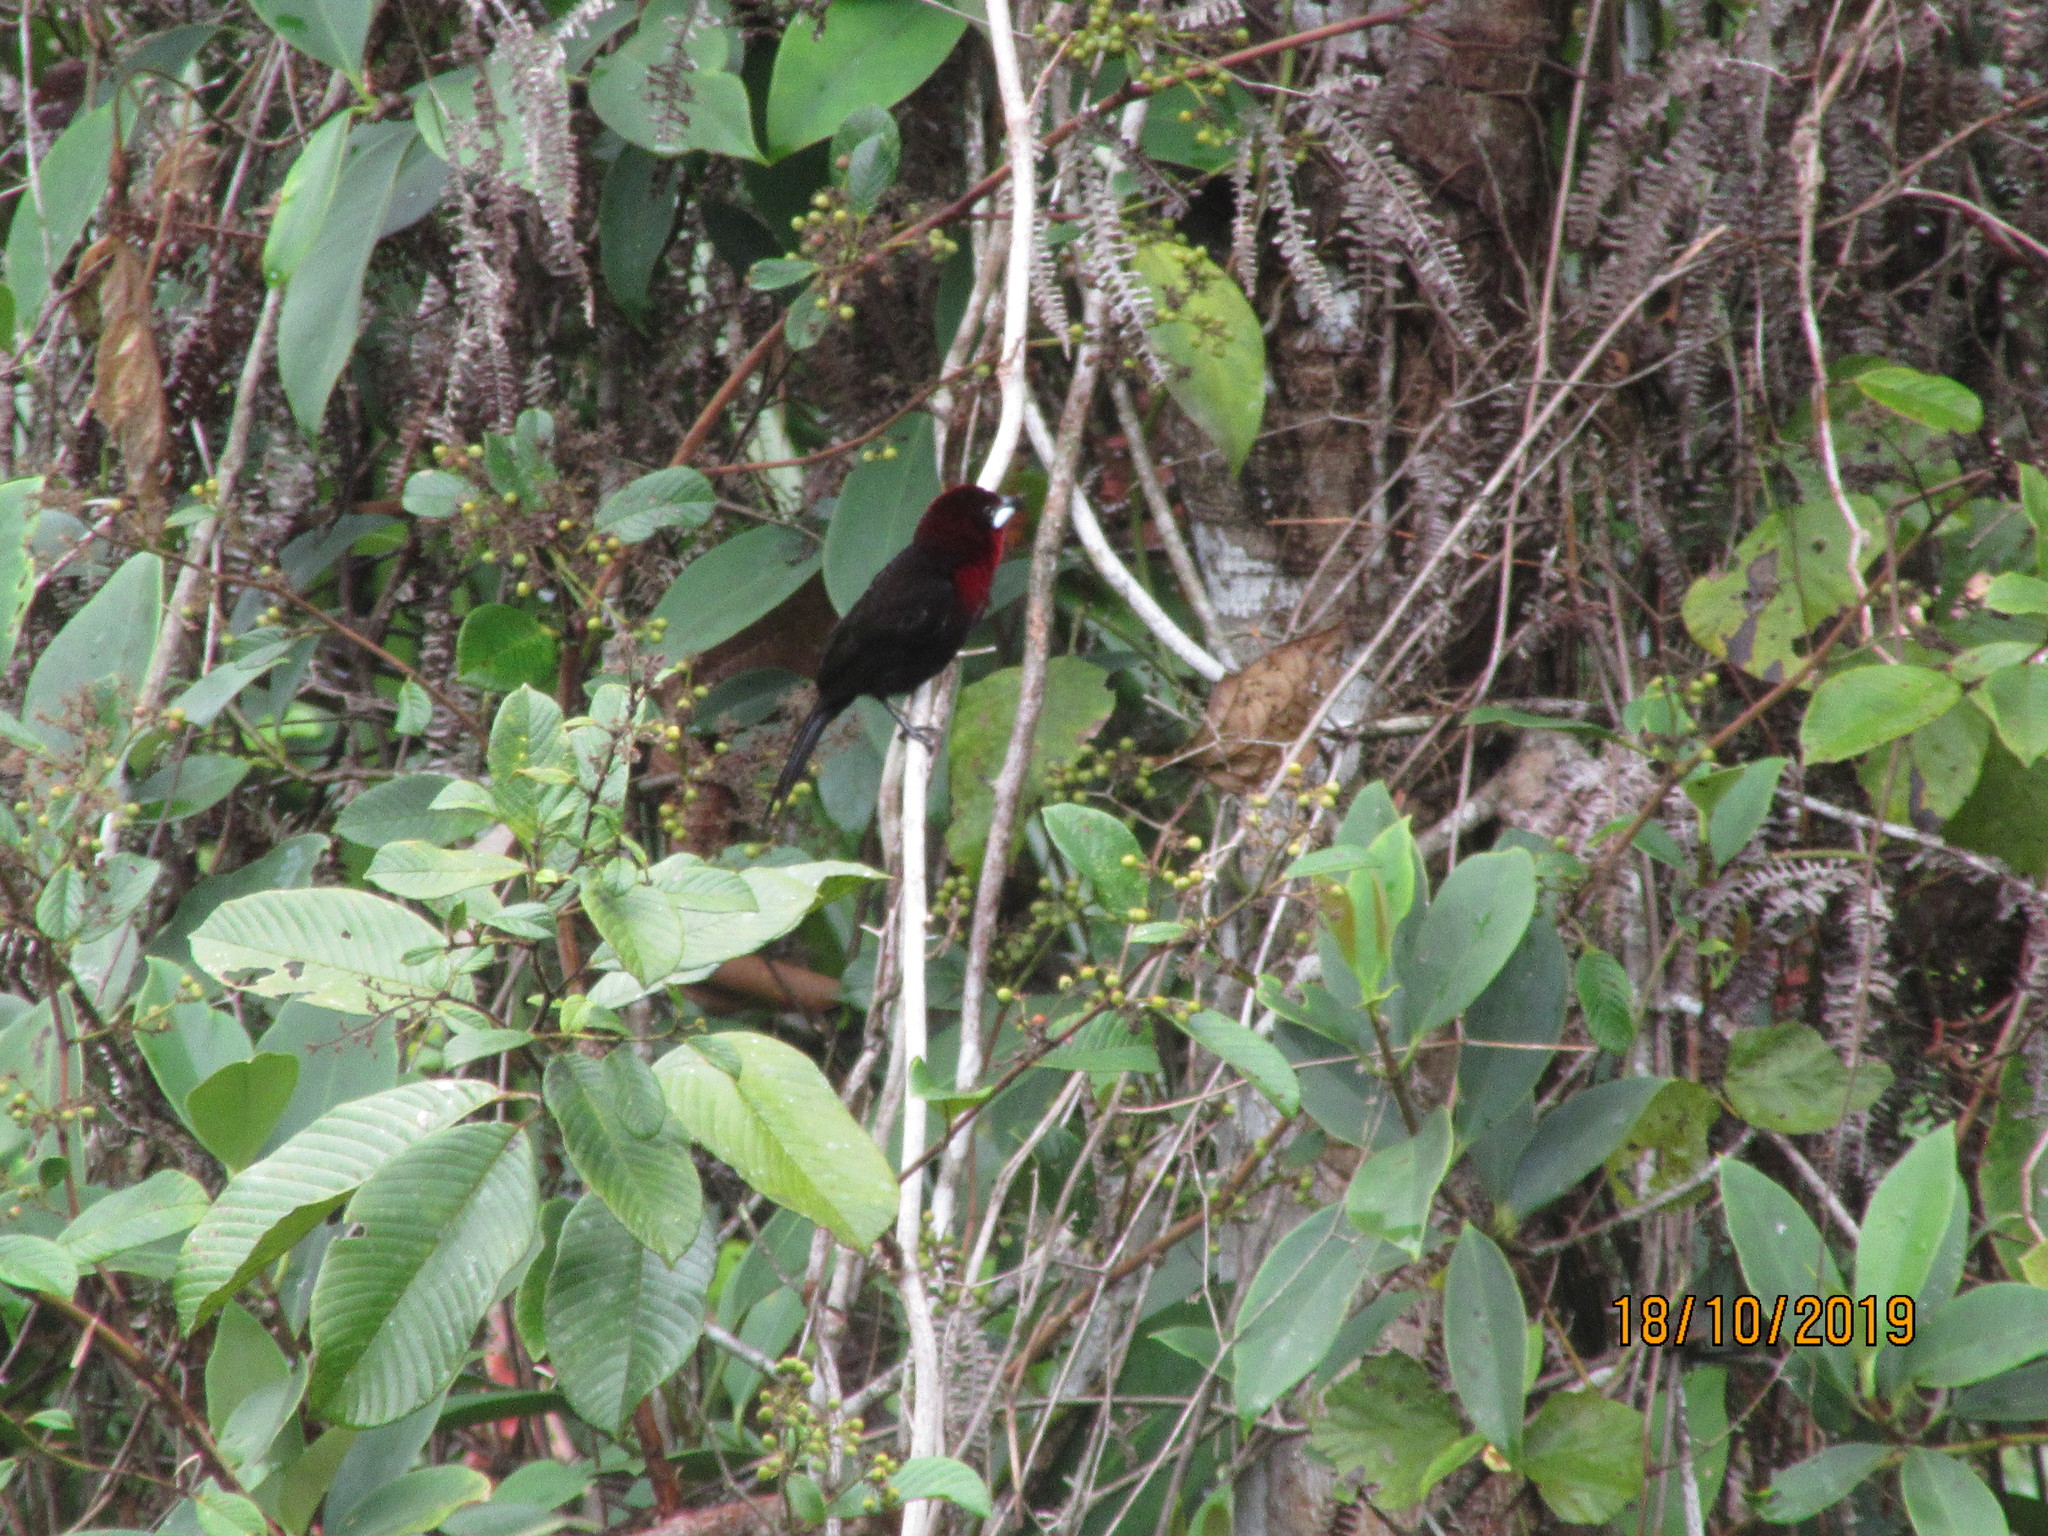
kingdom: Animalia
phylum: Chordata
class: Aves
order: Passeriformes
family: Thraupidae
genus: Ramphocelus
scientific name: Ramphocelus carbo
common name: Silver-beaked tanager
